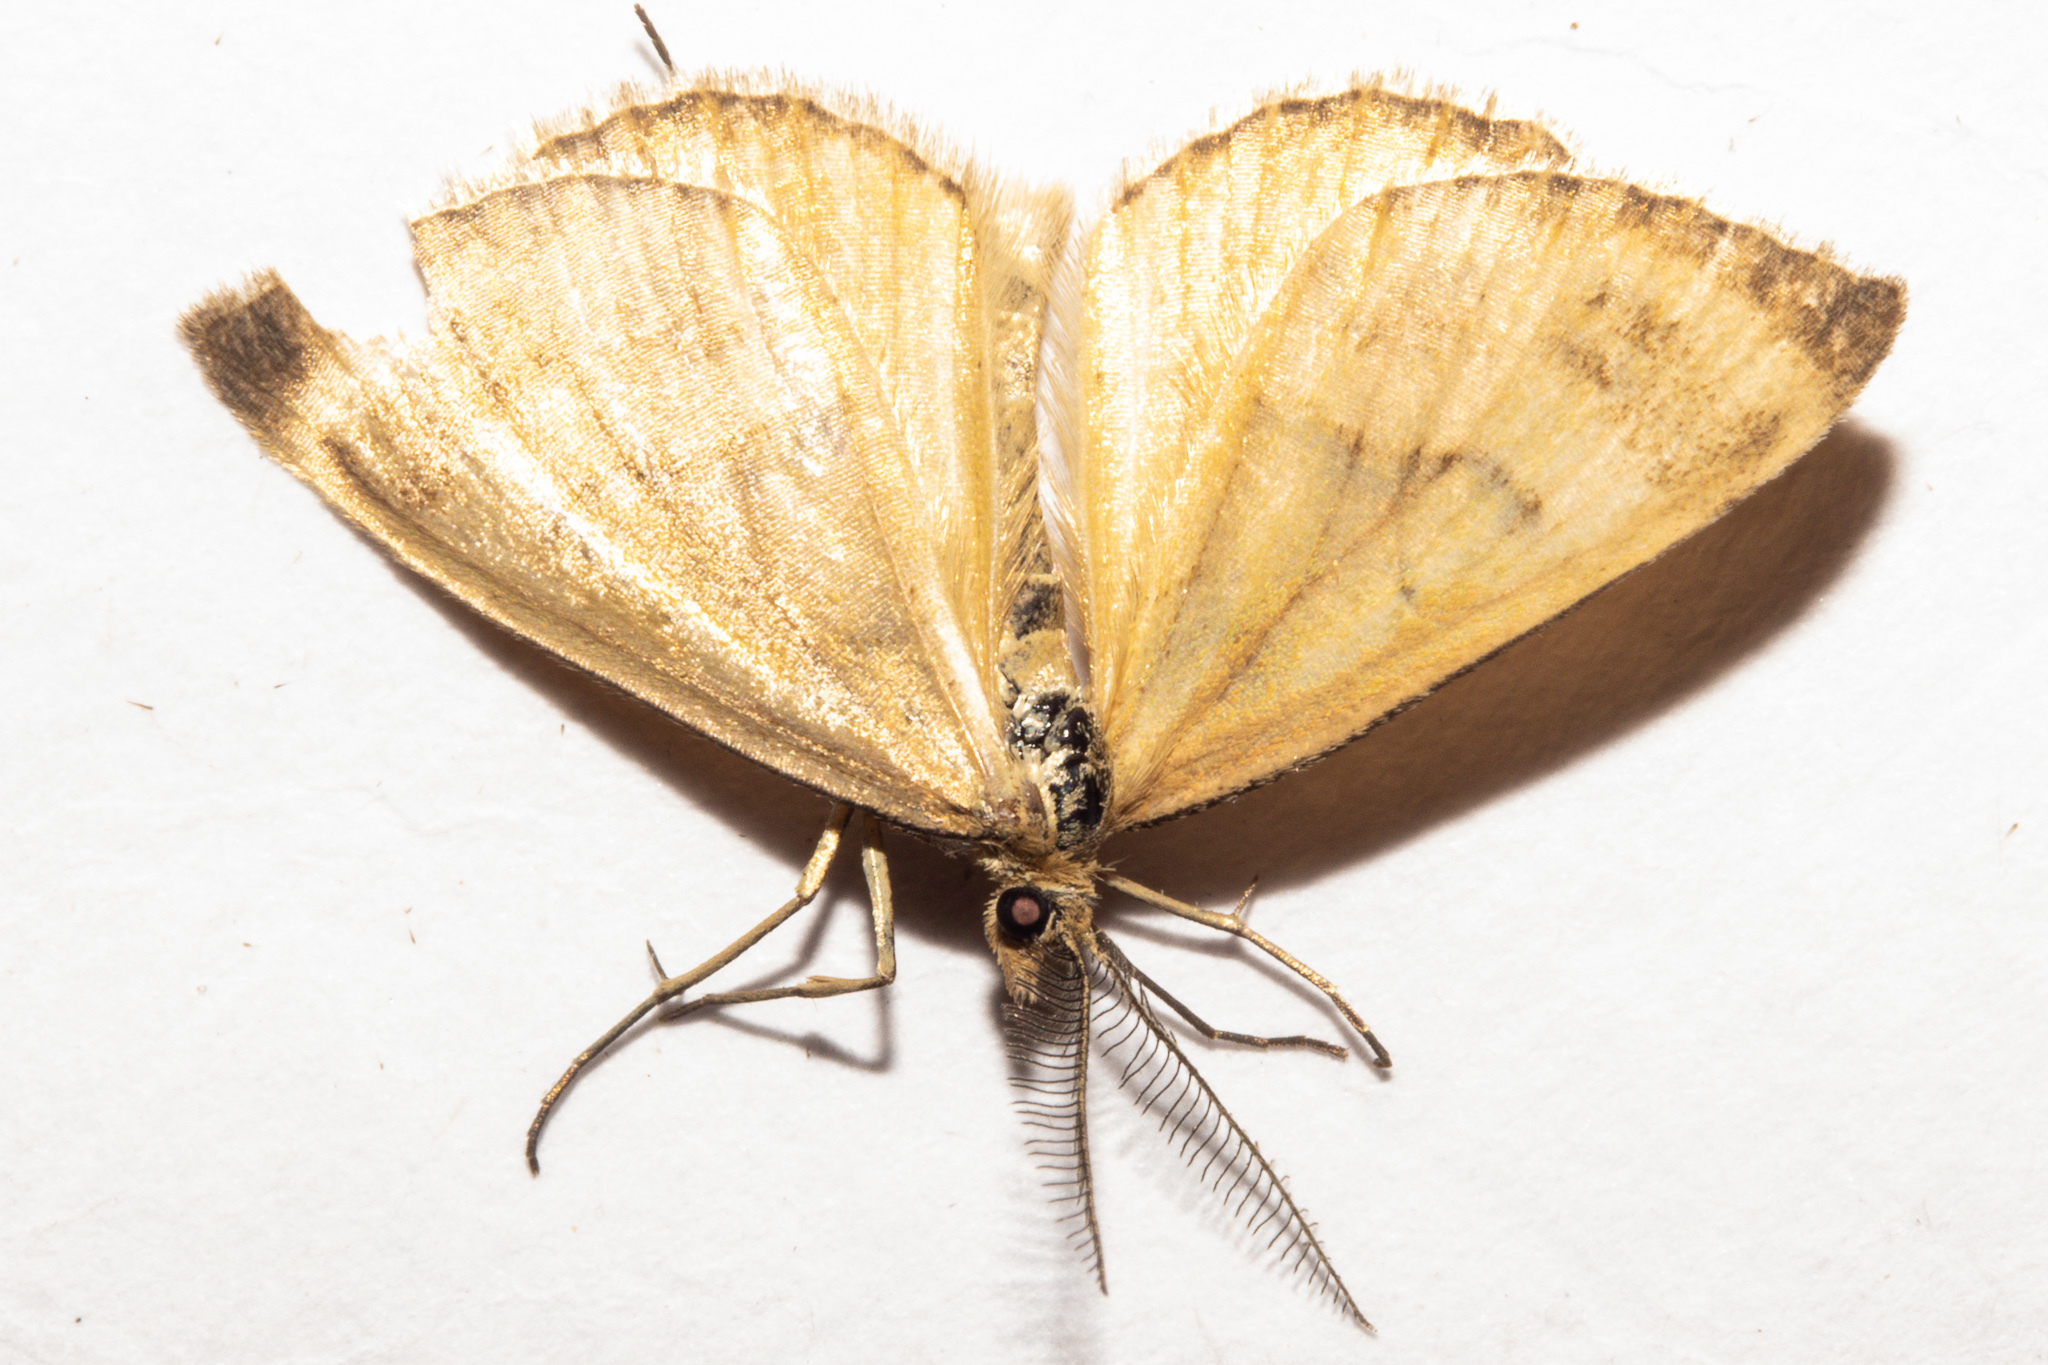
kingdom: Animalia
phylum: Arthropoda
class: Insecta
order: Lepidoptera
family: Geometridae
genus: Asaphodes
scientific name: Asaphodes abrogata
